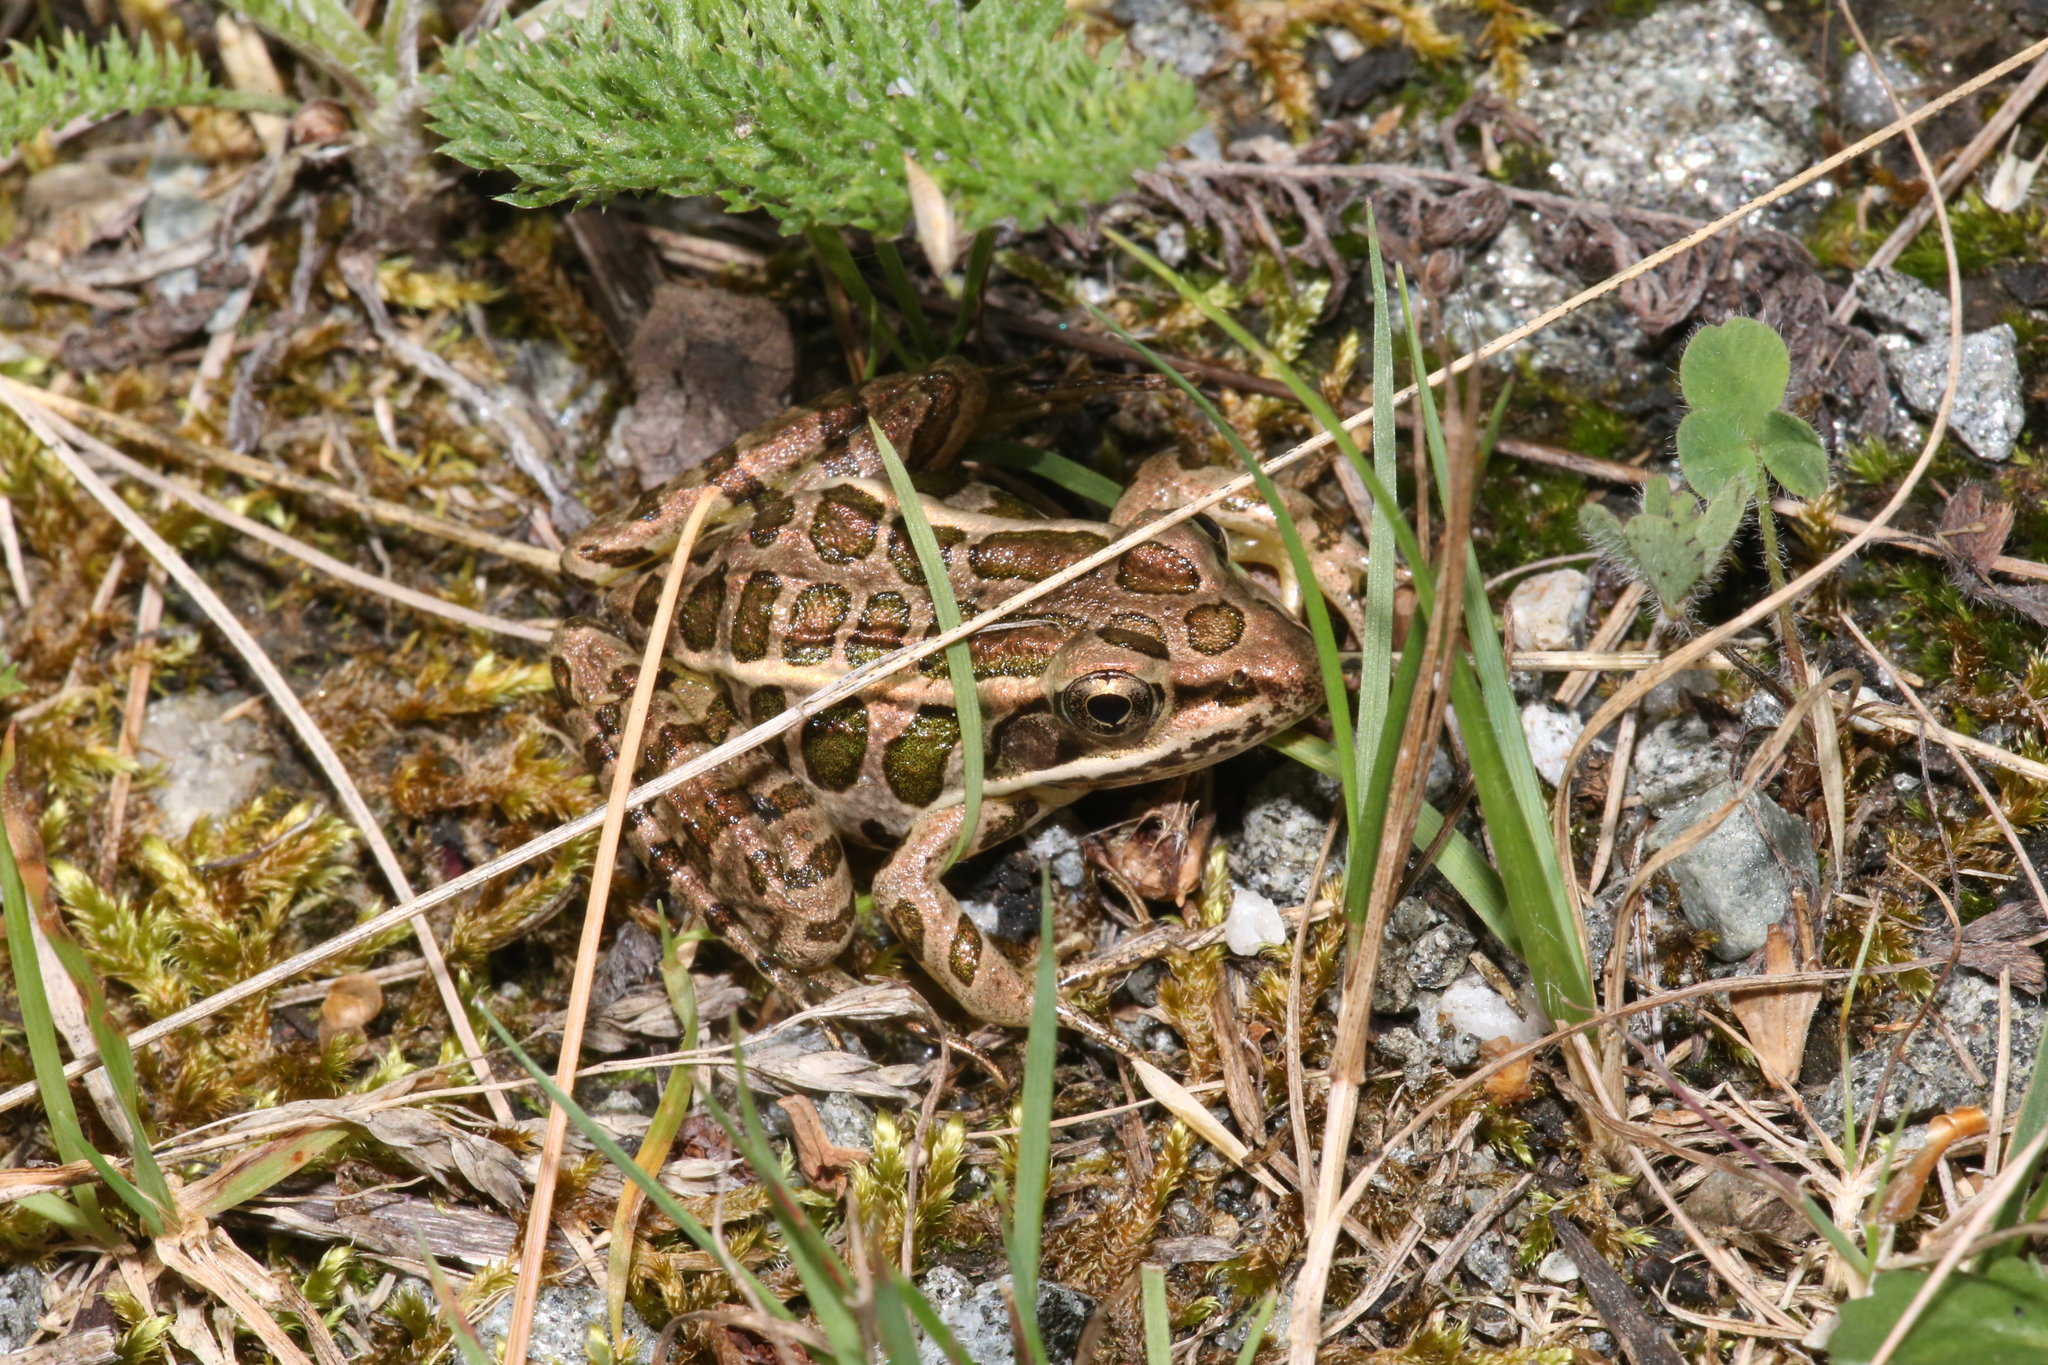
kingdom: Animalia
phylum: Chordata
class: Amphibia
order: Anura
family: Ranidae
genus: Lithobates
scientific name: Lithobates palustris
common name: Pickerel frog
